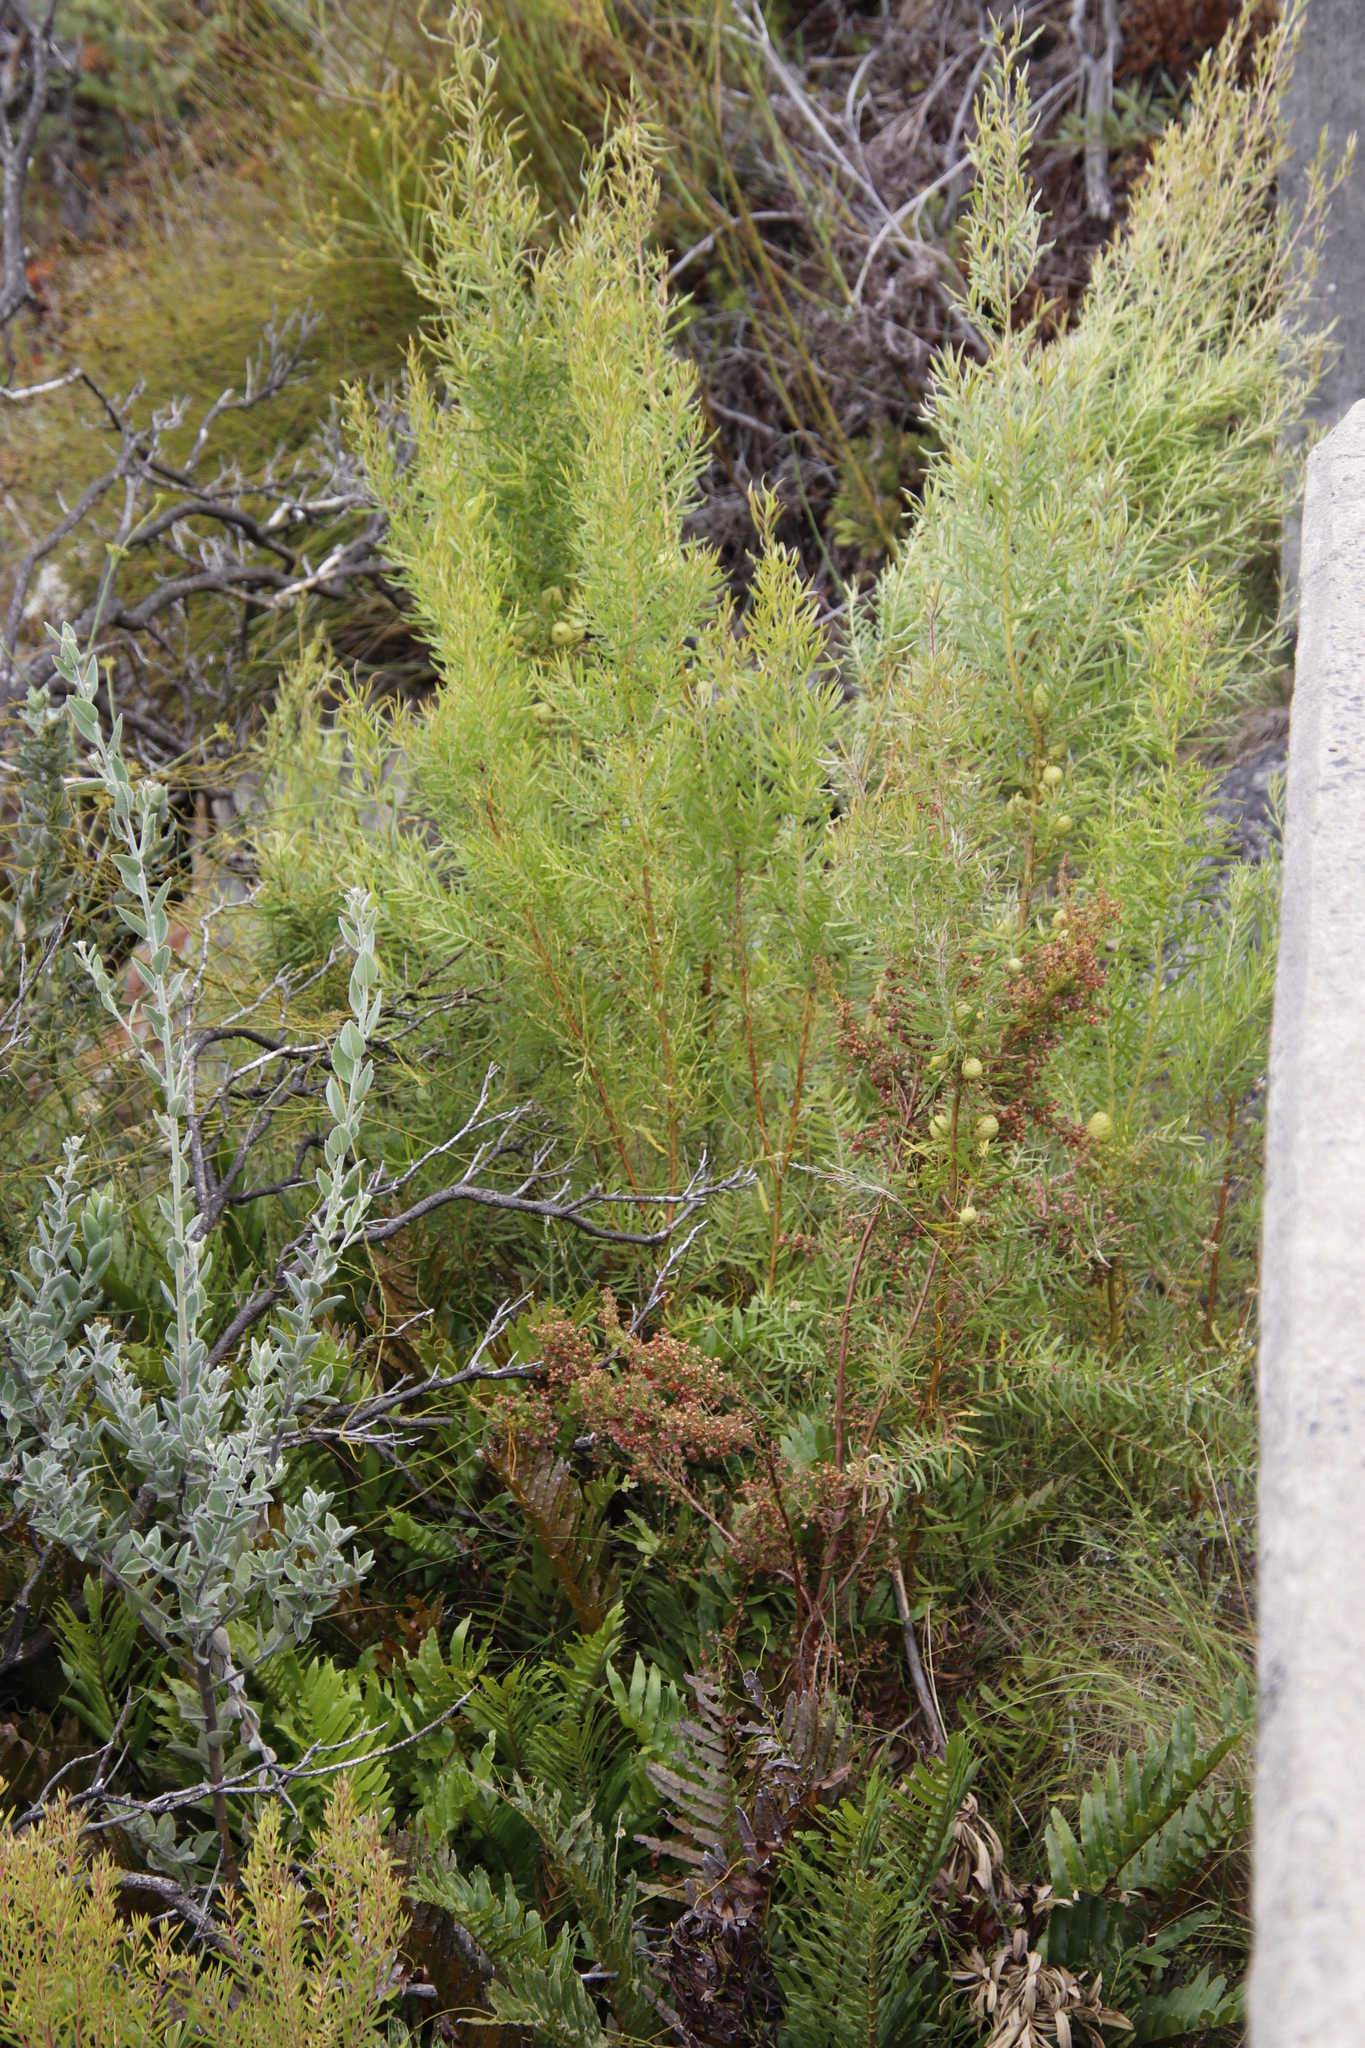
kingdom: Plantae
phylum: Tracheophyta
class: Magnoliopsida
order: Proteales
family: Proteaceae
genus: Leucadendron
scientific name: Leucadendron salicifolium
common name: Common stream conebush
